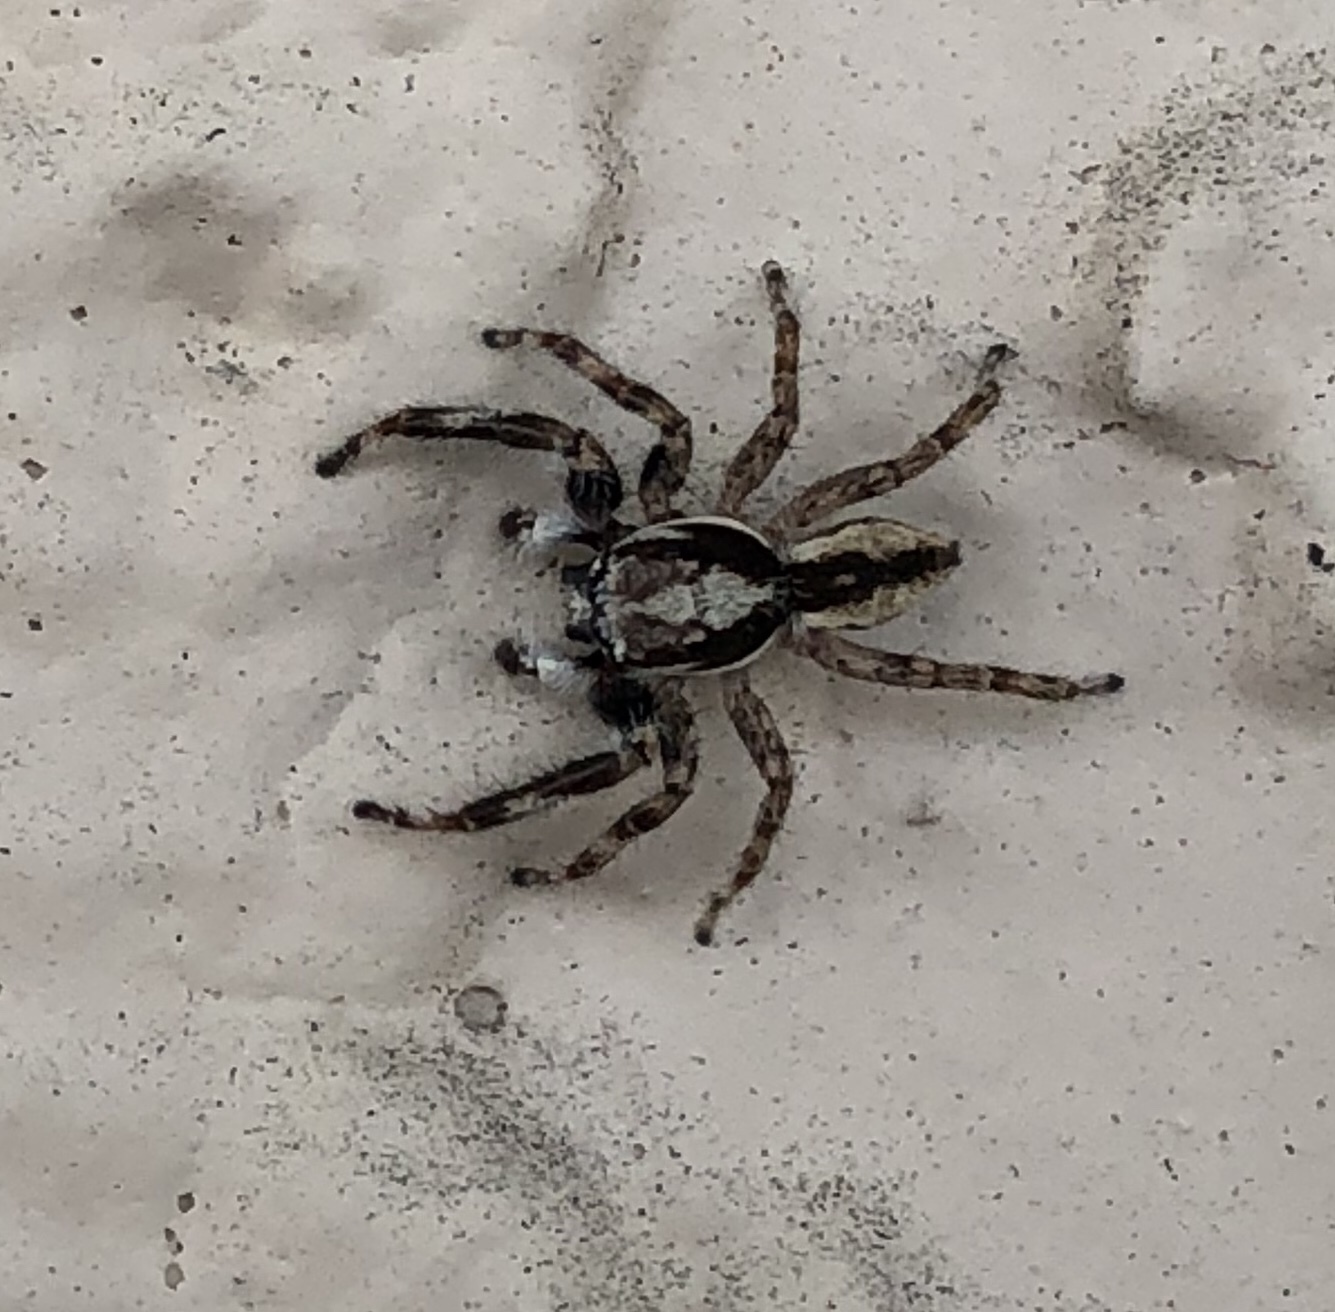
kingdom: Animalia
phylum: Arthropoda
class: Arachnida
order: Araneae
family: Salticidae
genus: Menemerus
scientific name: Menemerus bivittatus
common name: Gray wall jumper
